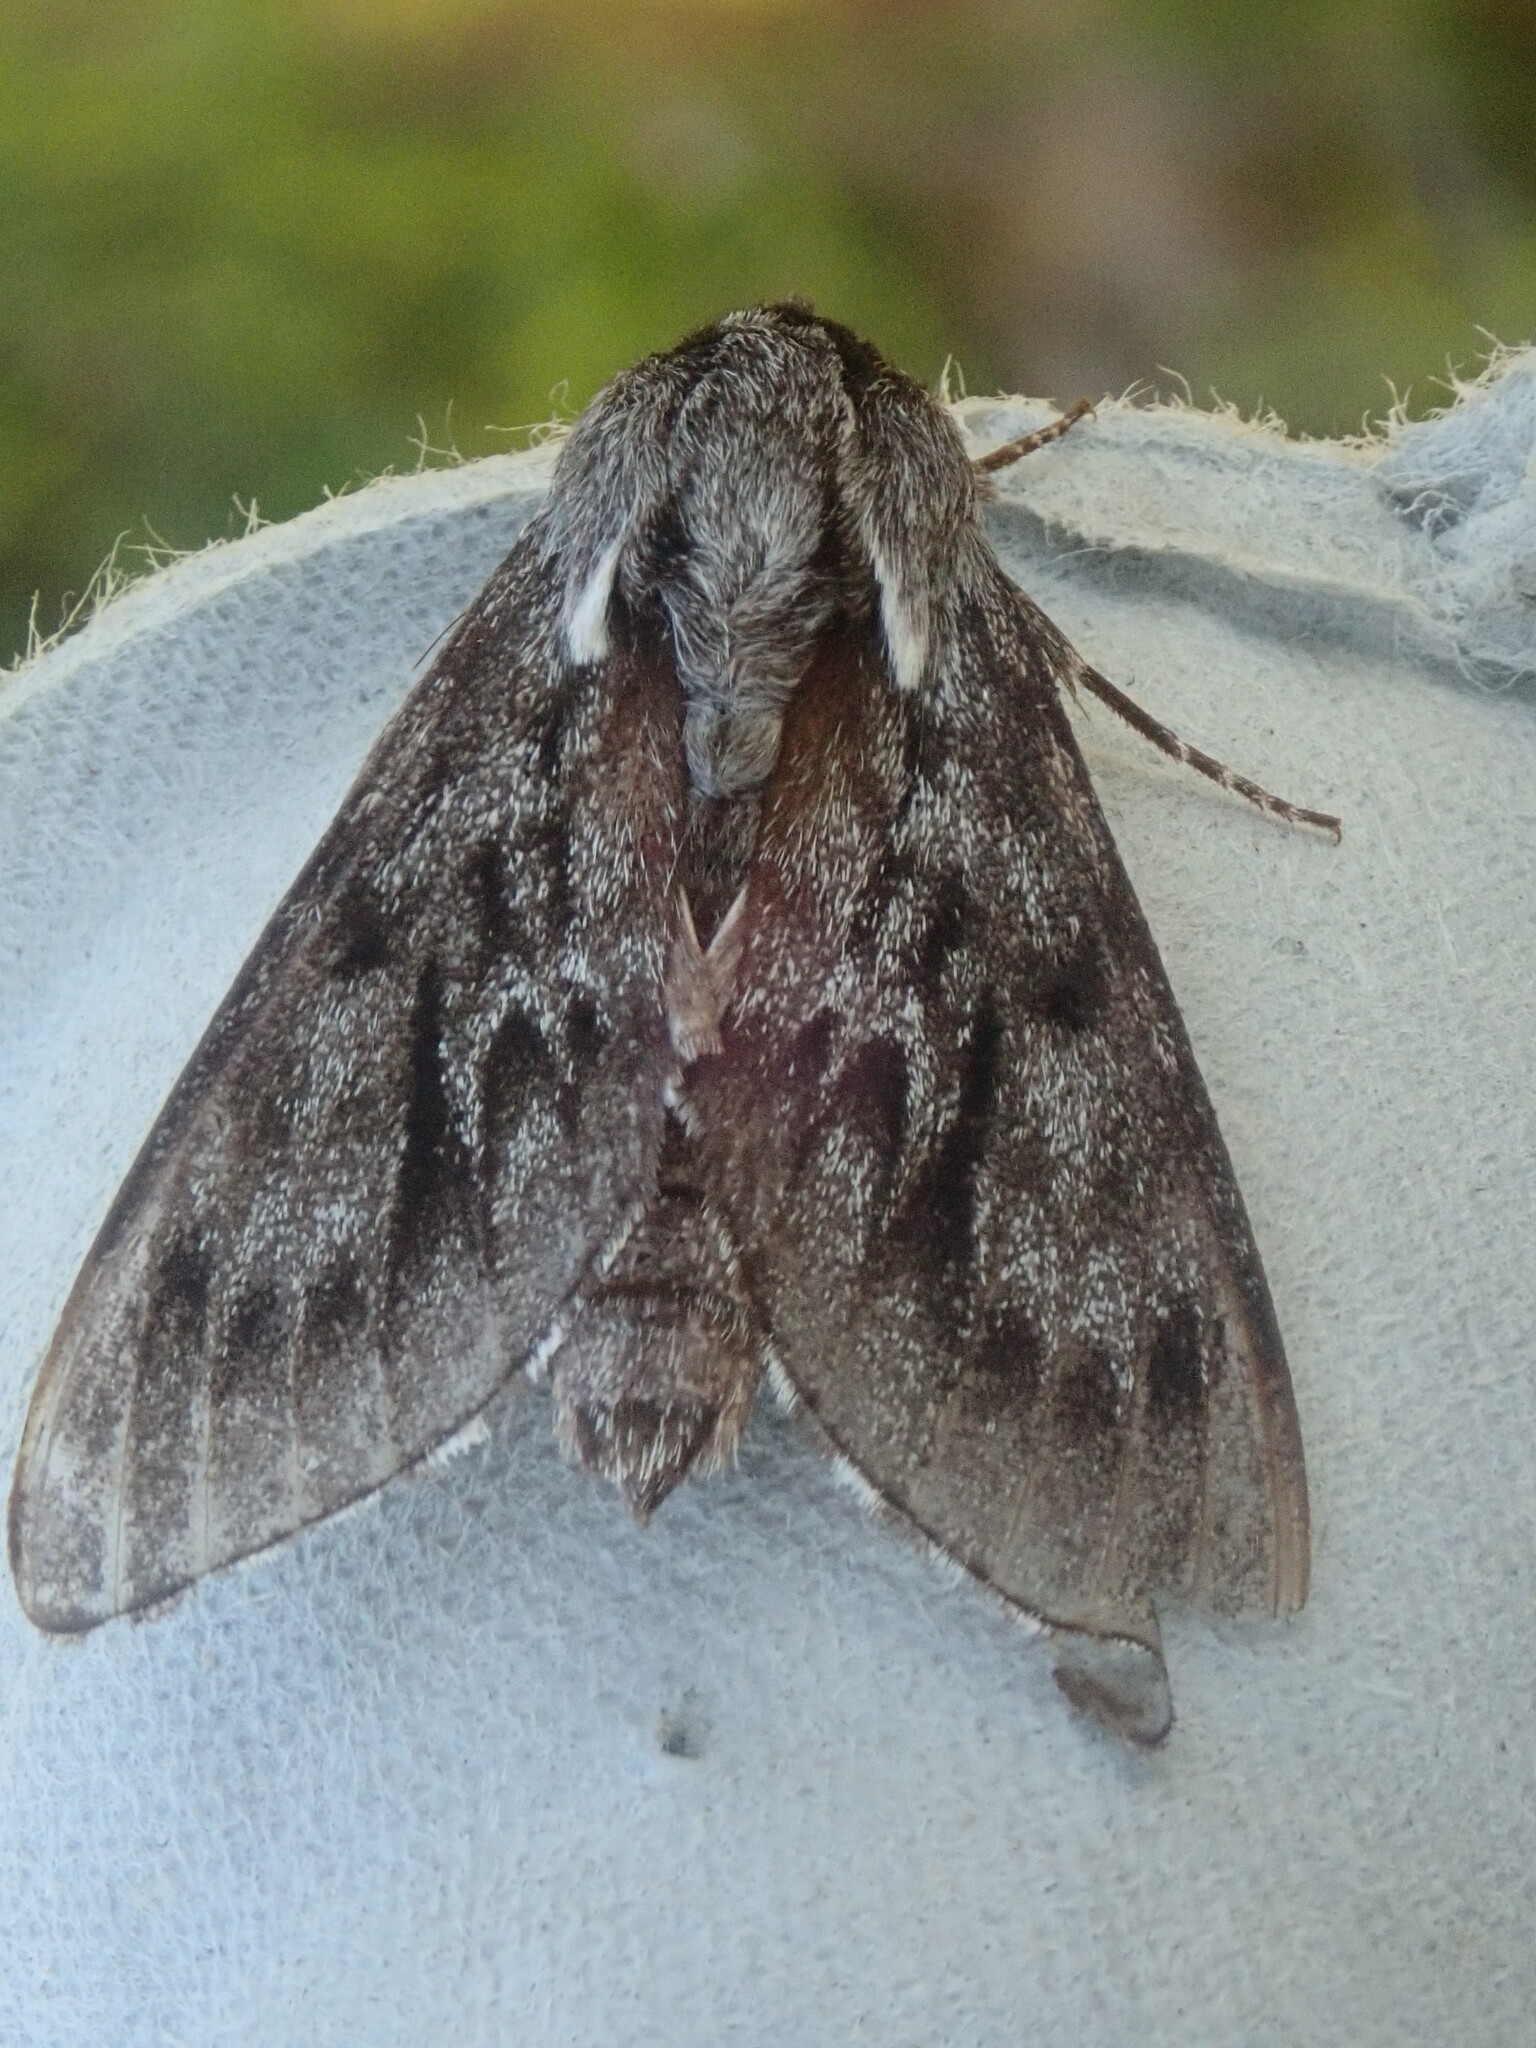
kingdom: Animalia
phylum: Arthropoda
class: Insecta
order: Lepidoptera
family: Sphingidae
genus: Lapara
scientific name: Lapara bombycoides
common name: Northern pine sphinx
